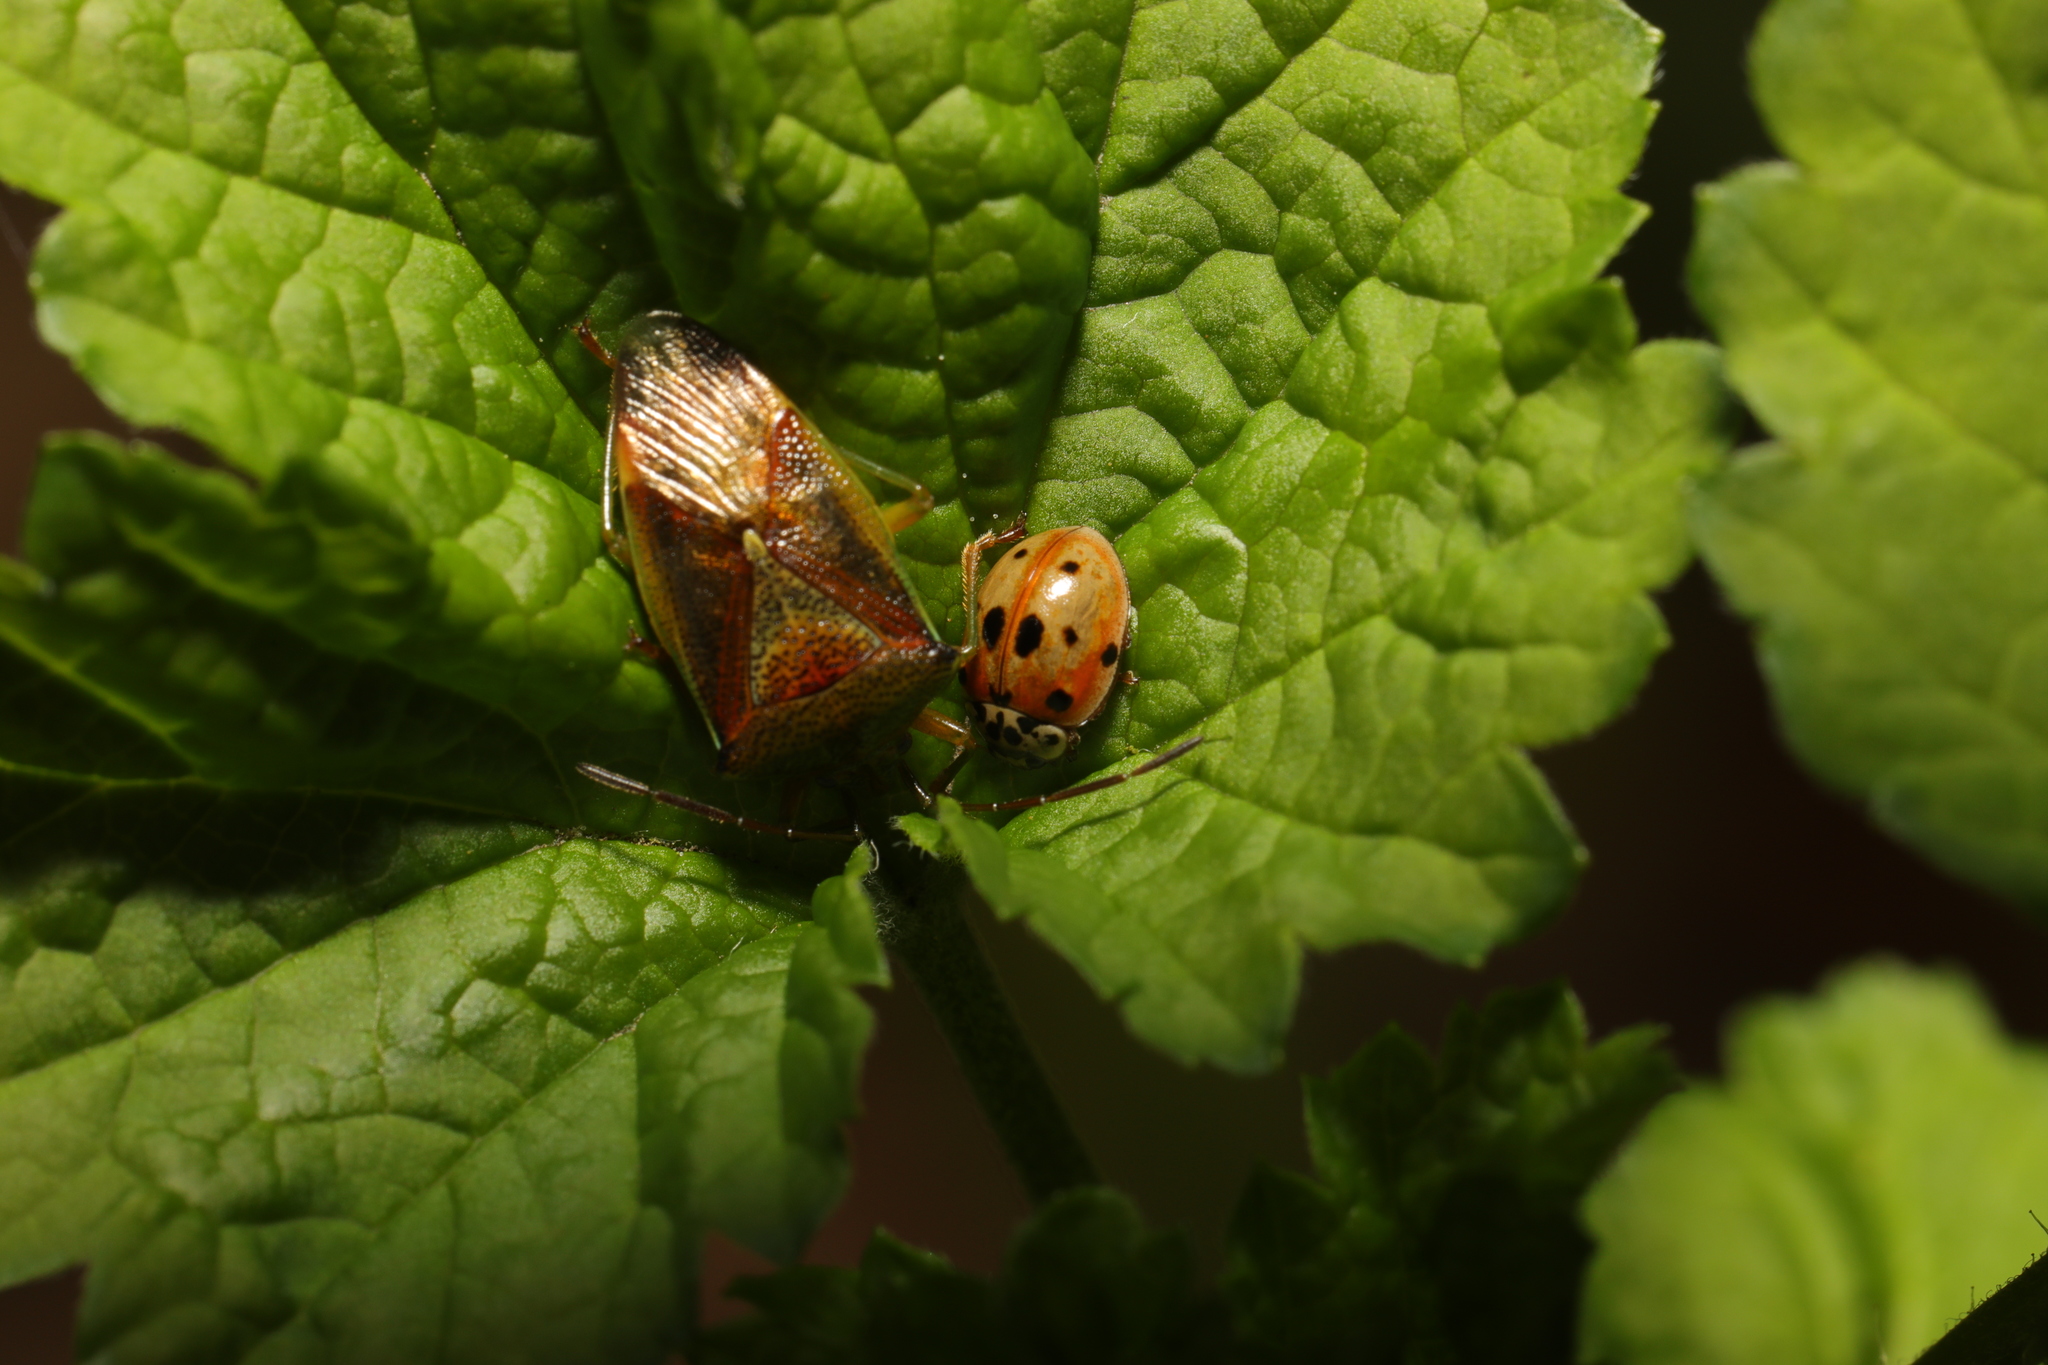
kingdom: Animalia
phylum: Arthropoda
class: Insecta
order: Hemiptera
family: Acanthosomatidae
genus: Elasmostethus
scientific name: Elasmostethus interstinctus
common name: Birch shieldbug
